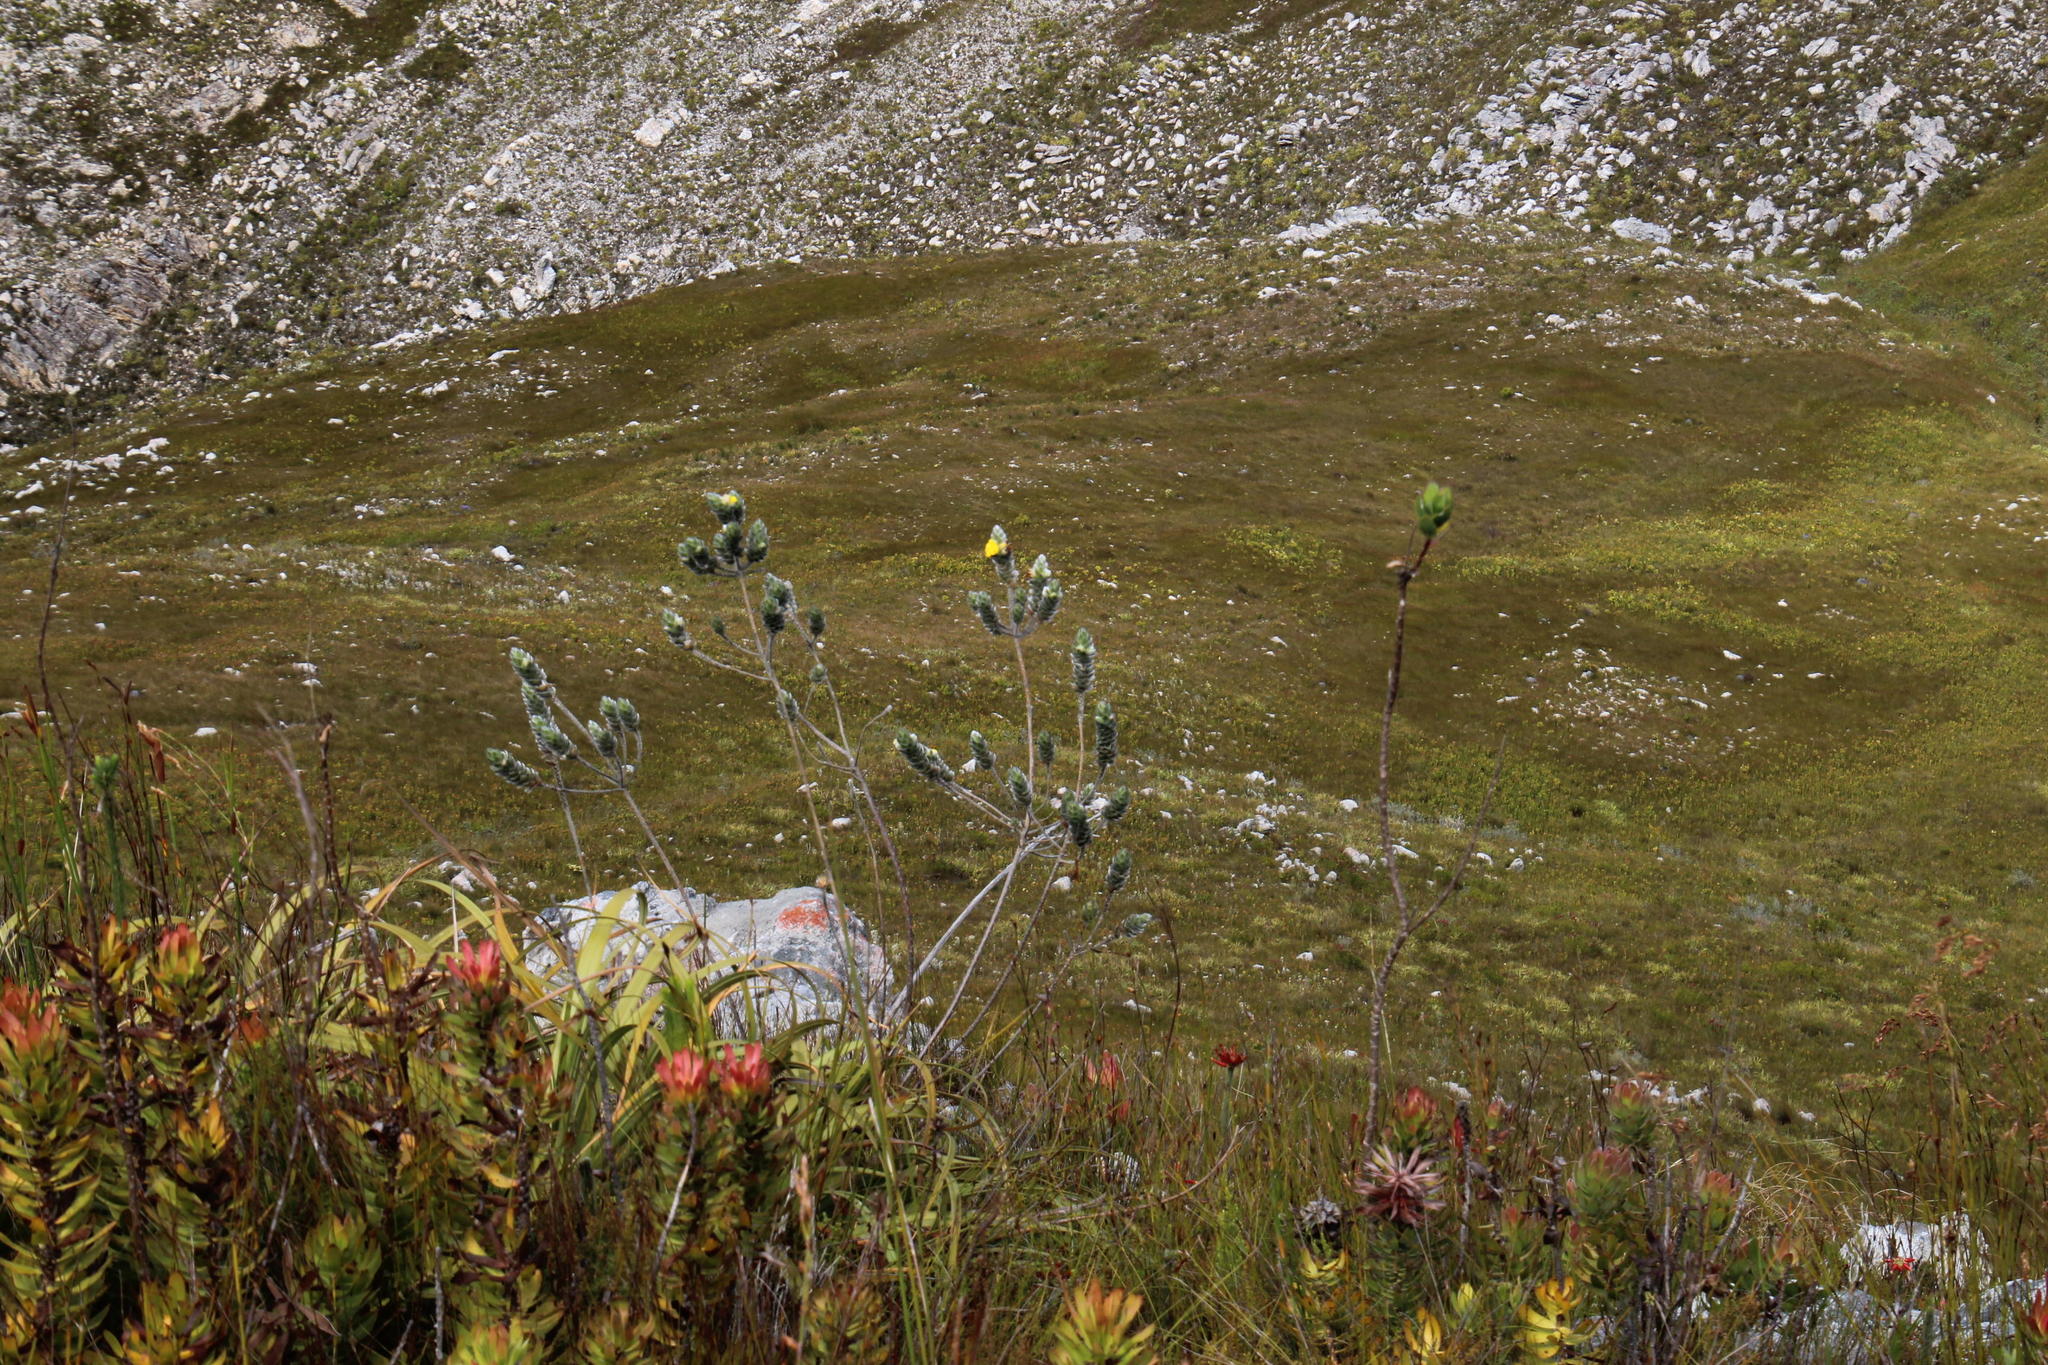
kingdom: Plantae
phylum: Tracheophyta
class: Magnoliopsida
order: Fabales
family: Fabaceae
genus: Liparia
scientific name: Liparia vestita
